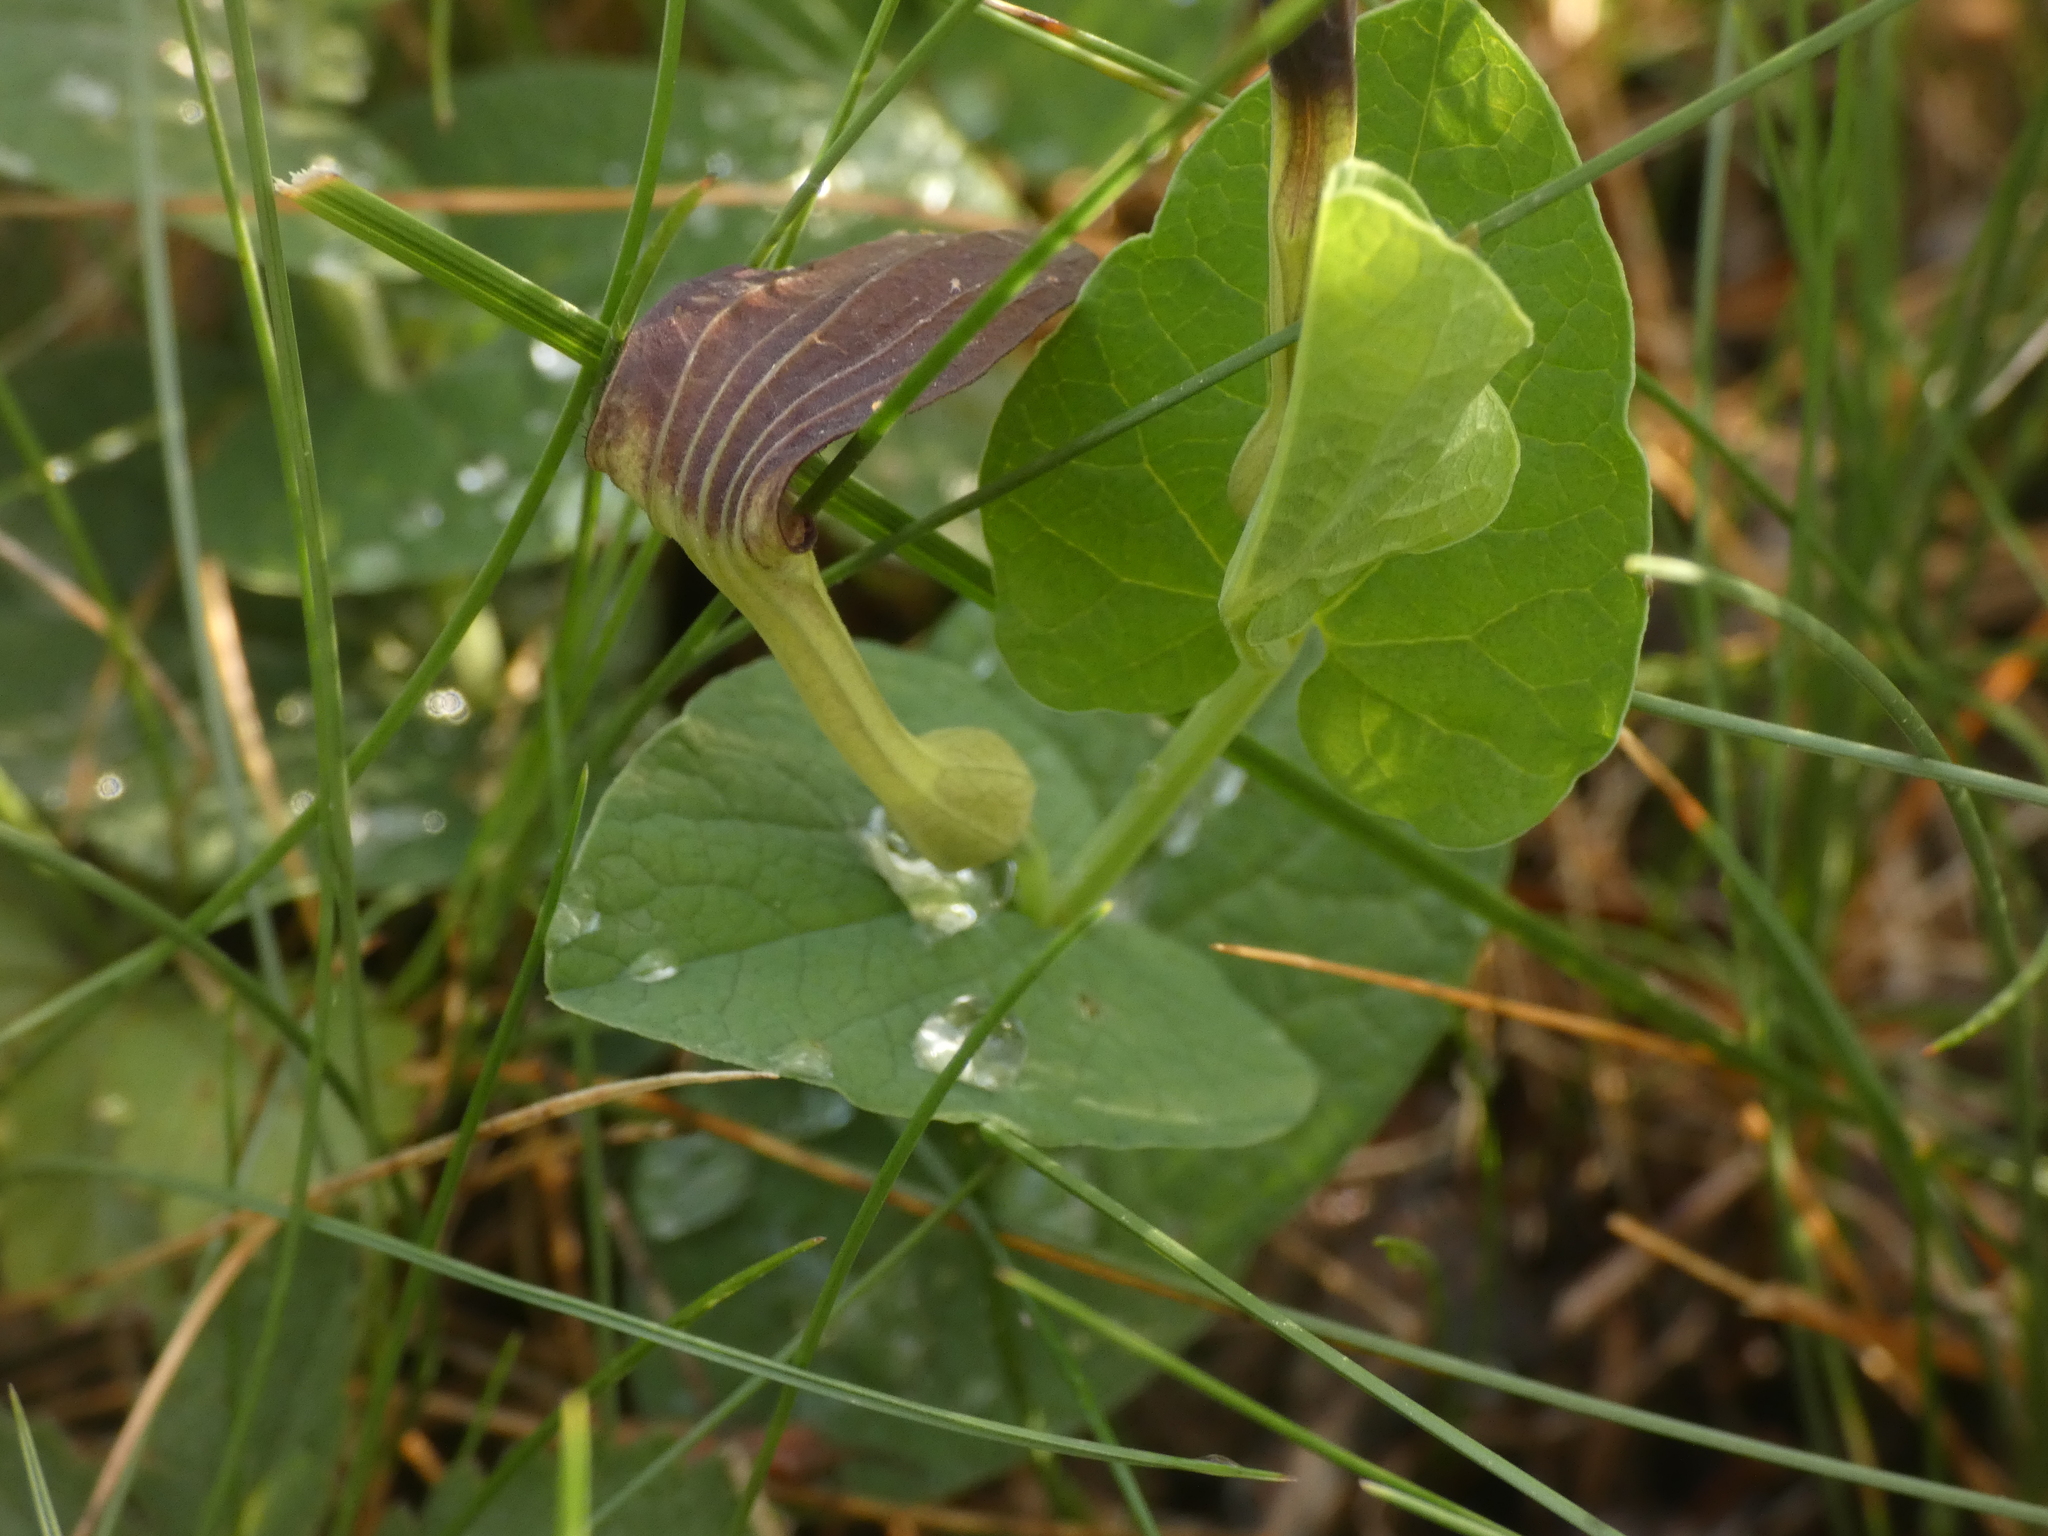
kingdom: Plantae
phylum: Tracheophyta
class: Magnoliopsida
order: Piperales
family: Aristolochiaceae
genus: Aristolochia
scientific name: Aristolochia rotunda
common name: Smearwort
